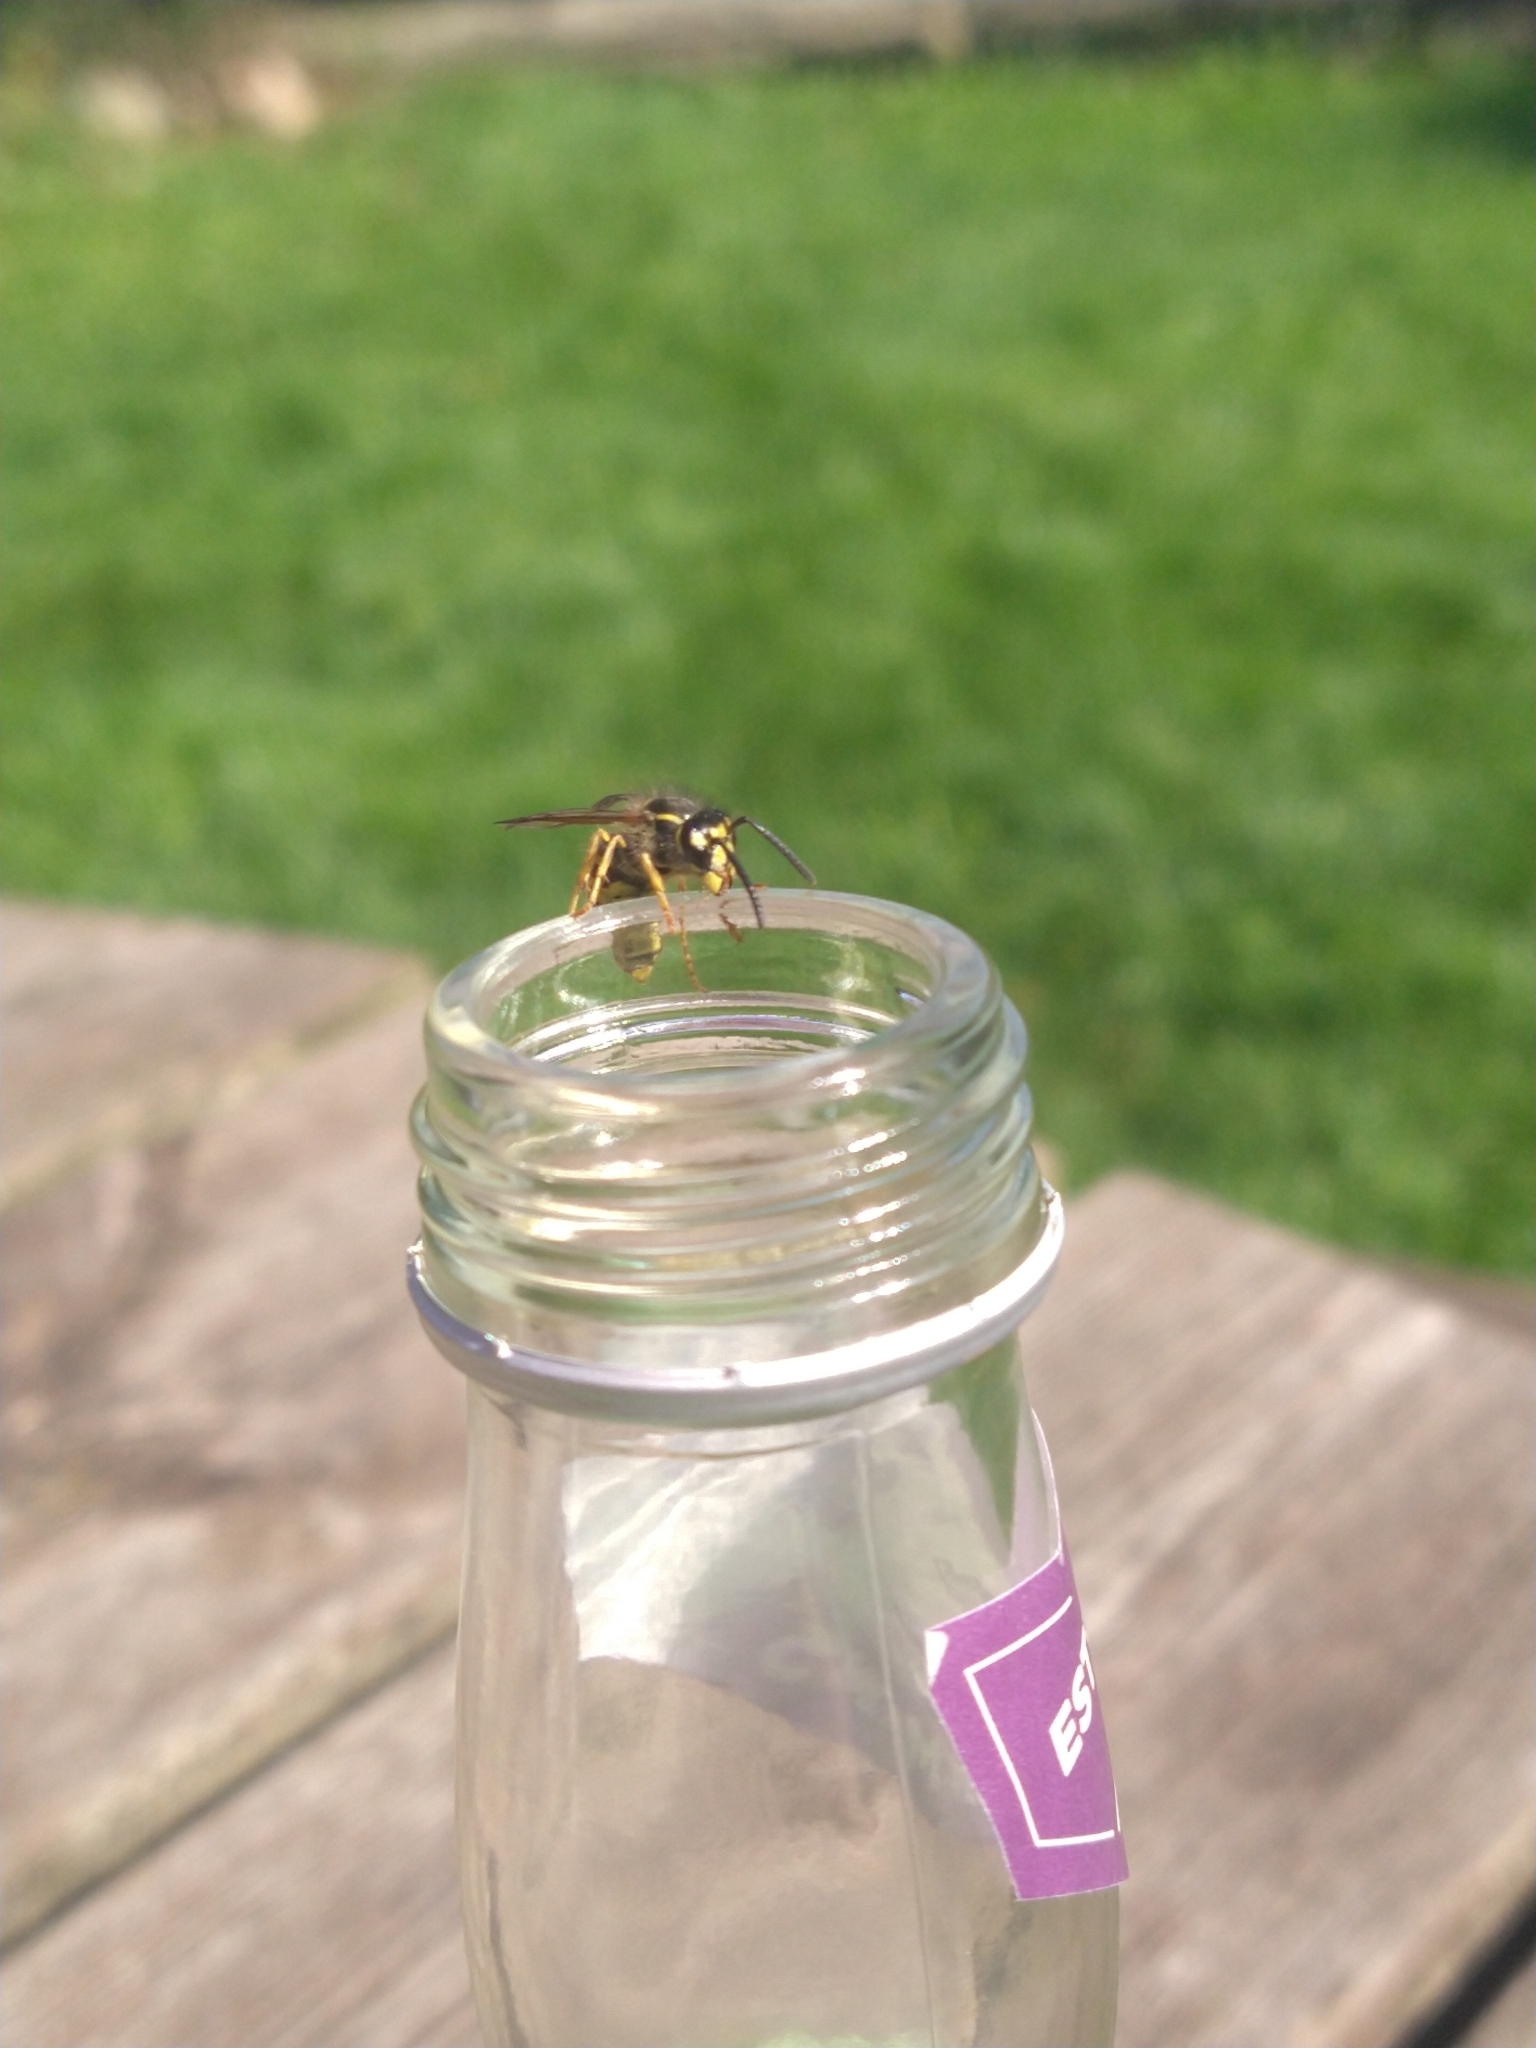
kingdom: Animalia
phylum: Arthropoda
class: Insecta
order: Hymenoptera
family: Vespidae
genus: Vespula
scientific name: Vespula vulgaris
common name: Common wasp
